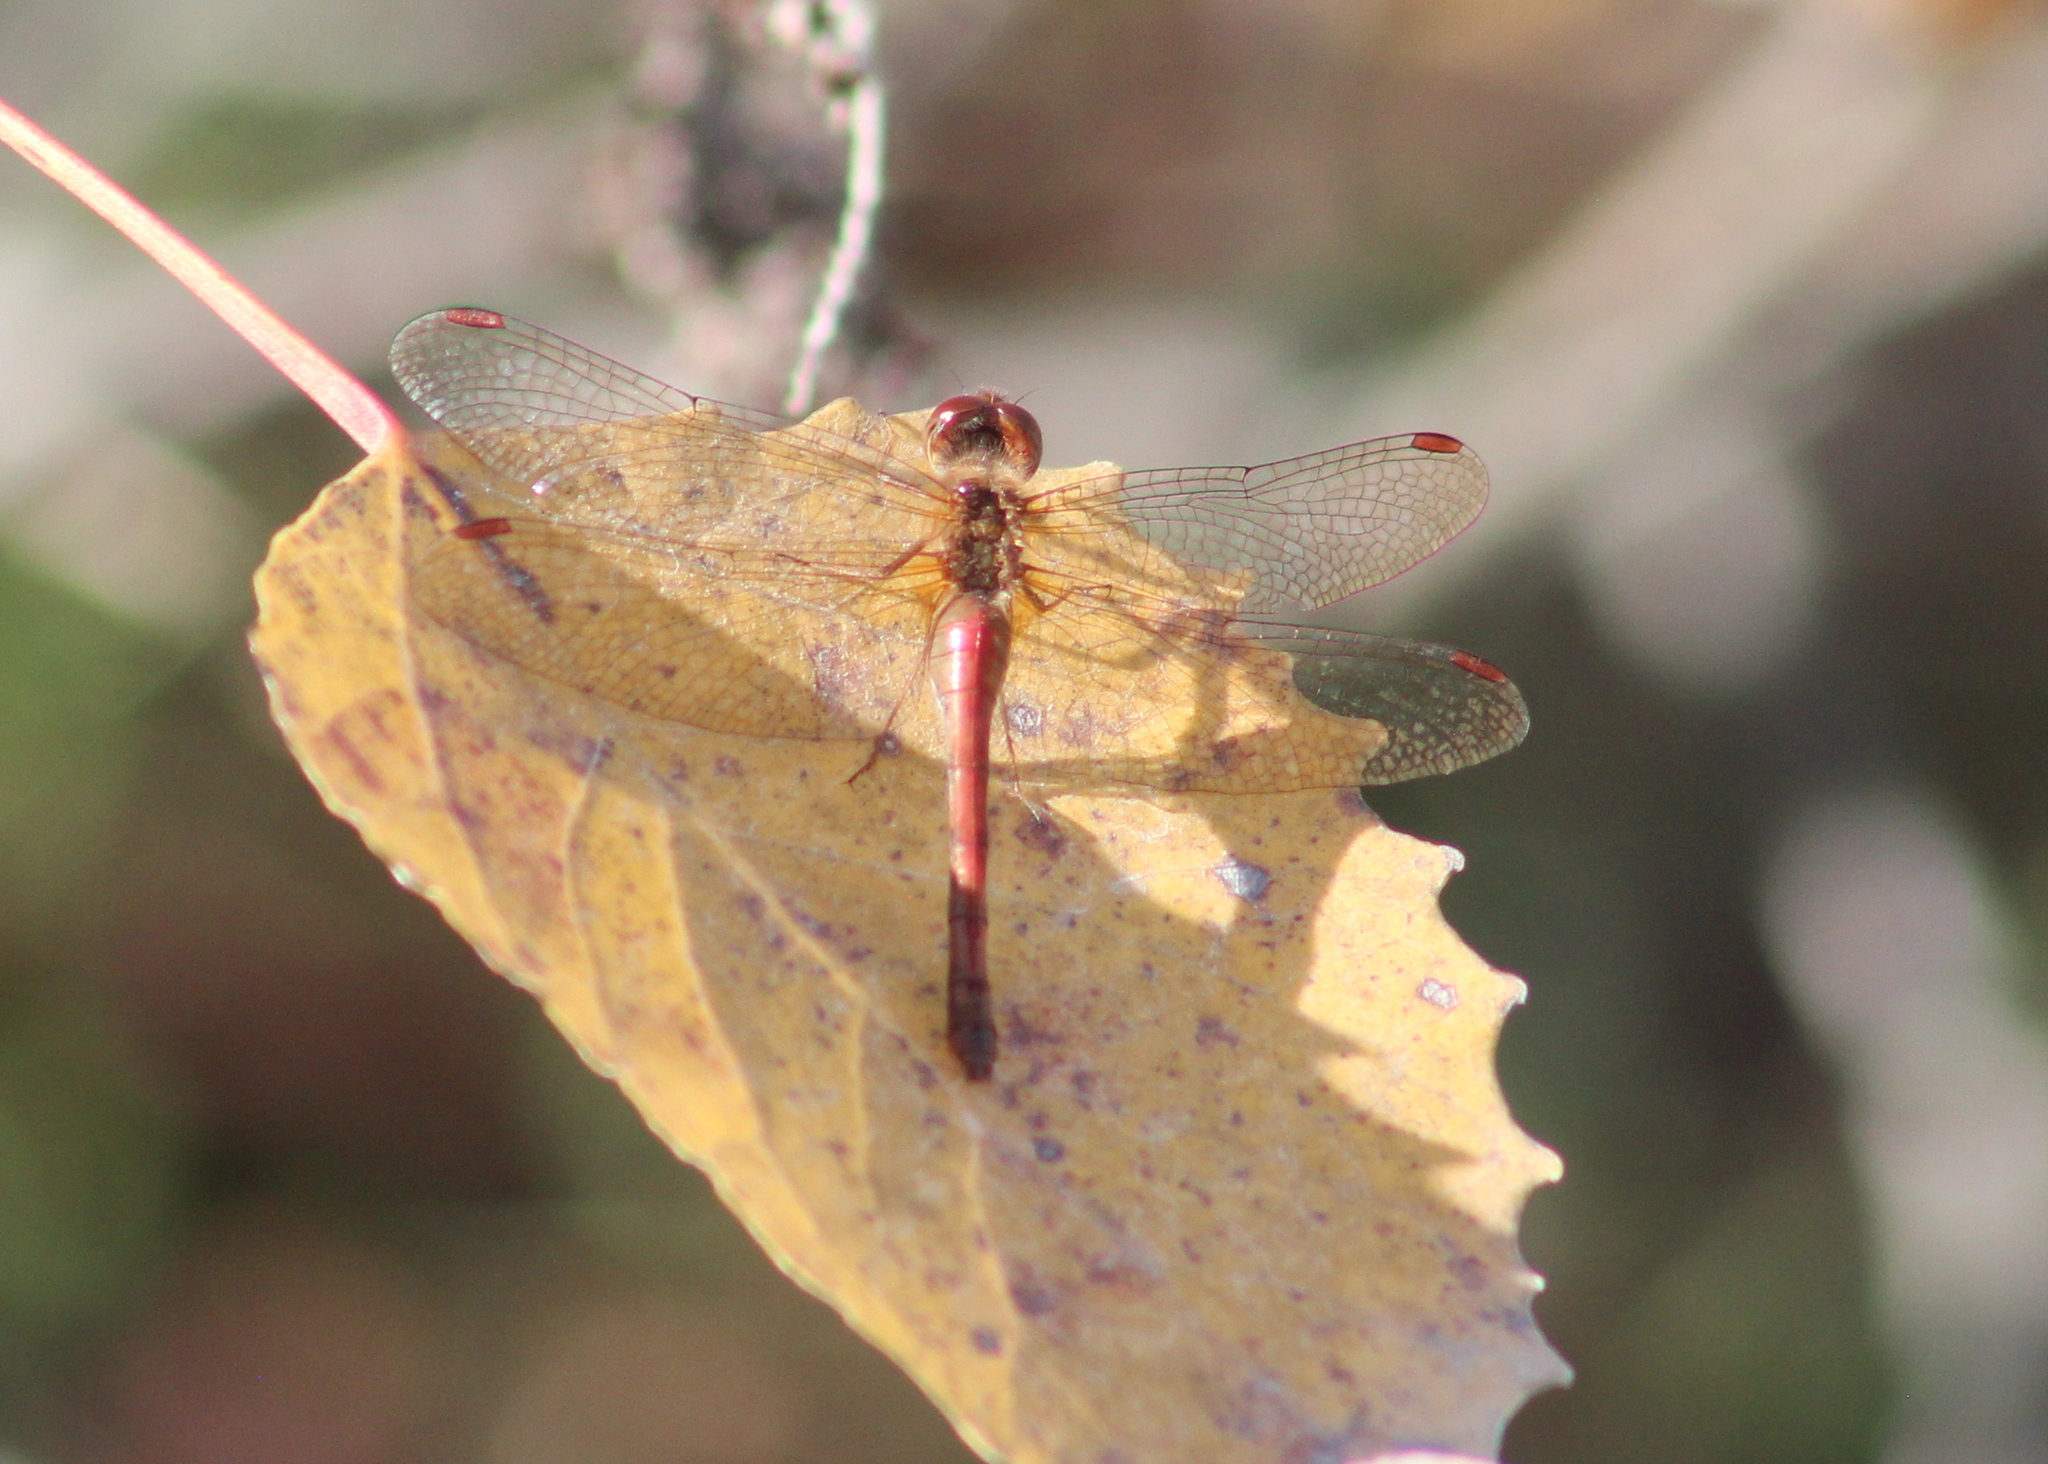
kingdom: Animalia
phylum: Arthropoda
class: Insecta
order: Odonata
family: Libellulidae
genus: Sympetrum
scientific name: Sympetrum vicinum
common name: Autumn meadowhawk
